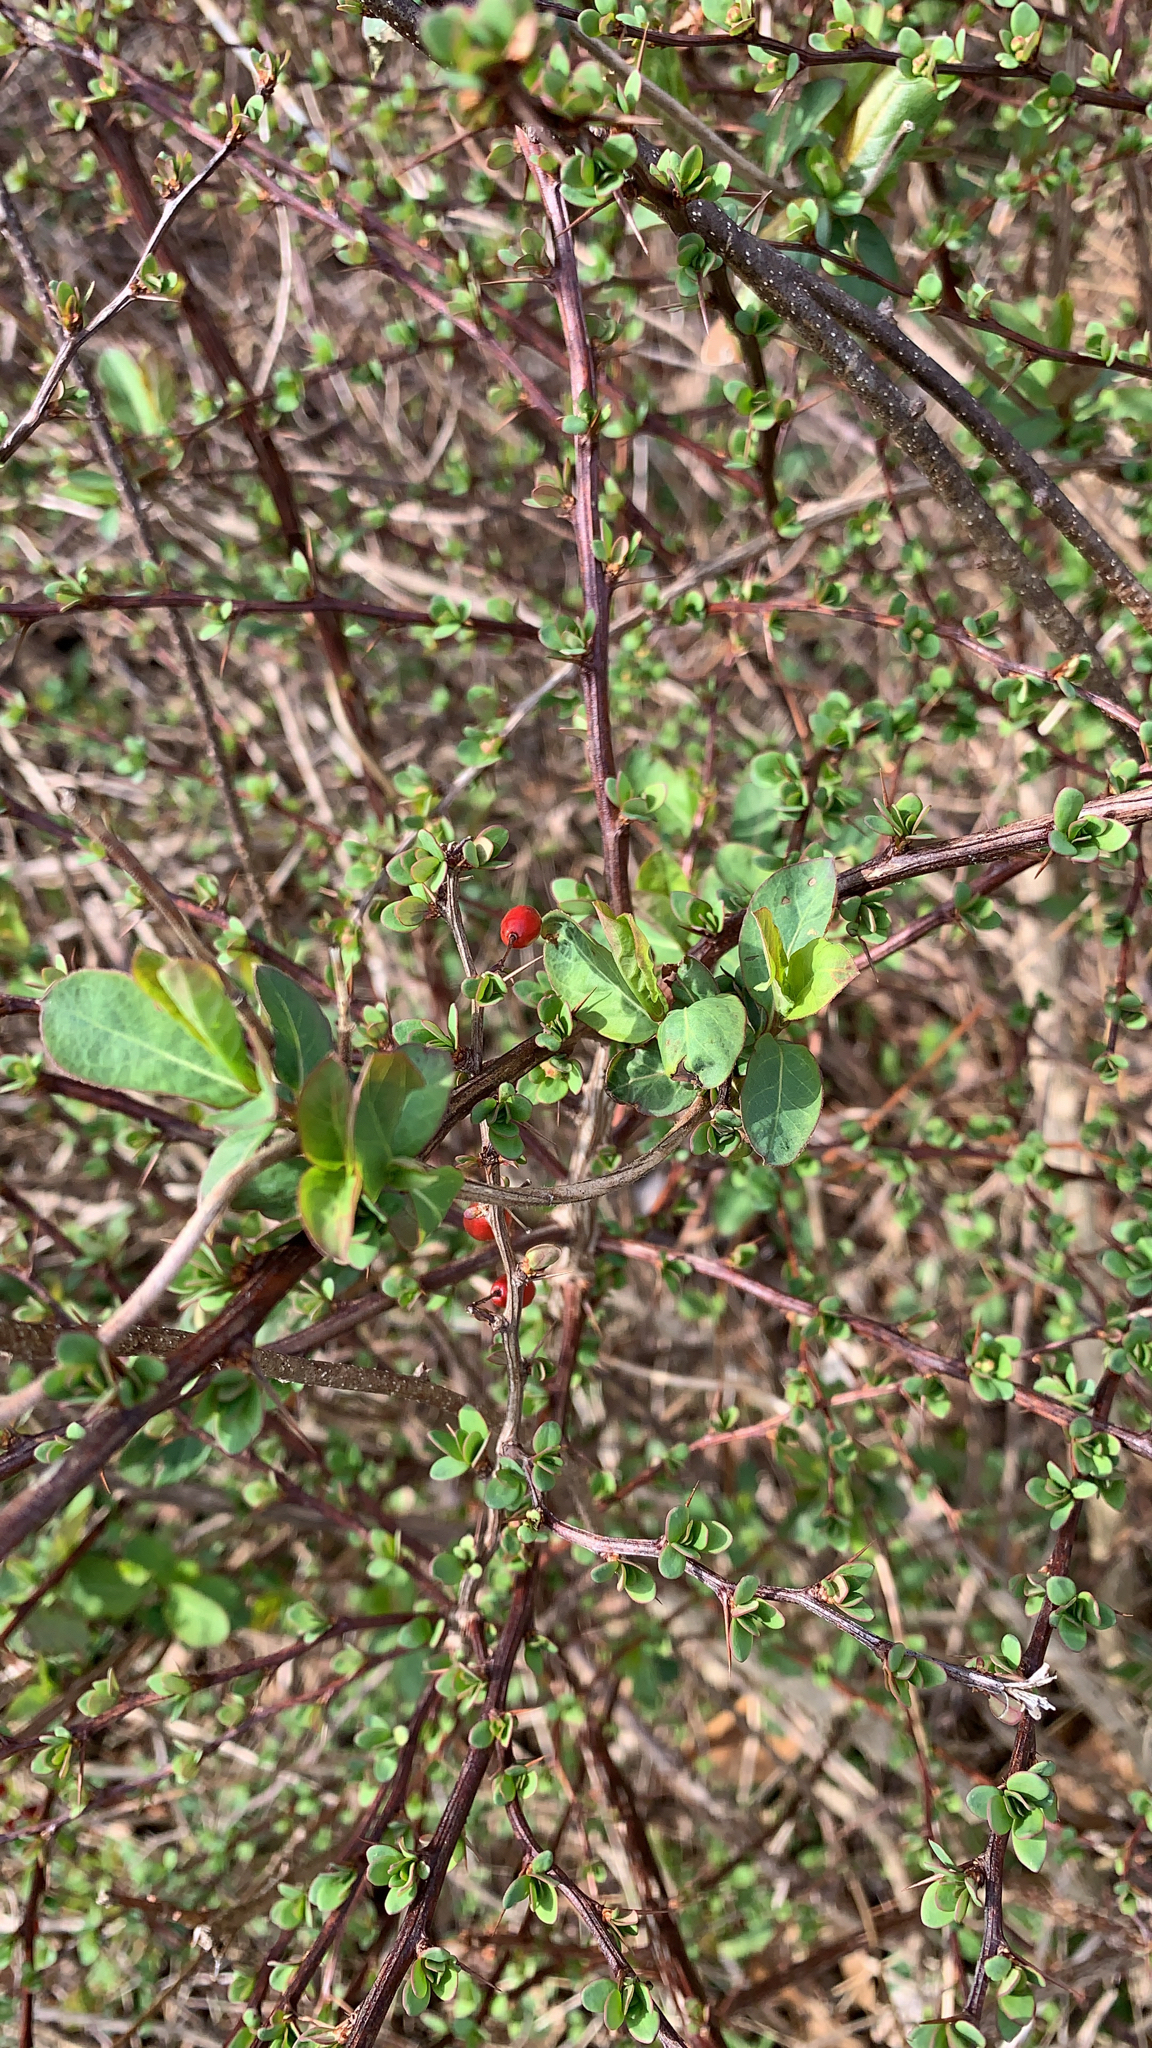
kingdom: Plantae
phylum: Tracheophyta
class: Magnoliopsida
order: Ranunculales
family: Berberidaceae
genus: Berberis
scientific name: Berberis thunbergii
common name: Japanese barberry
